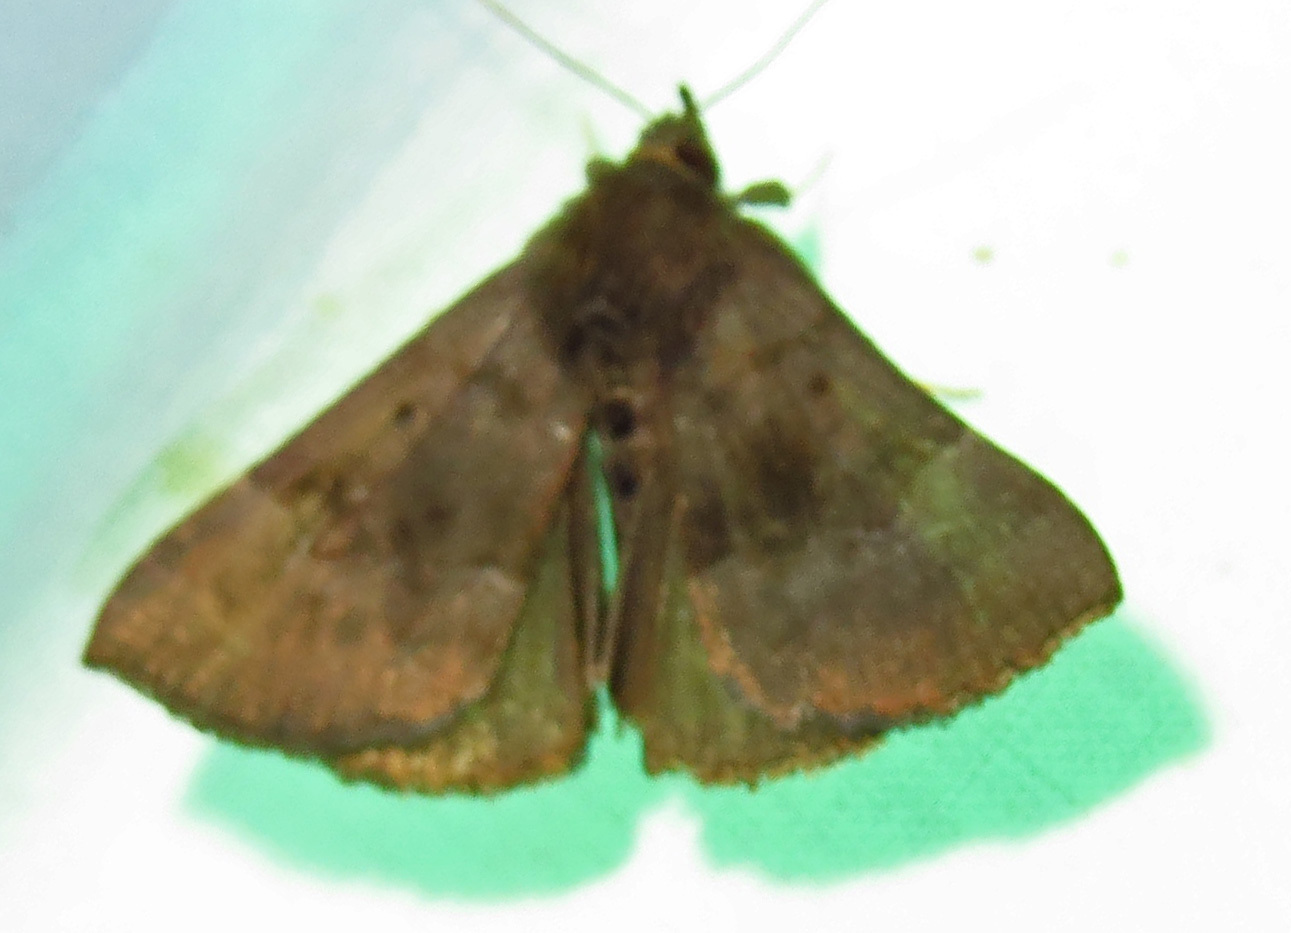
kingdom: Animalia
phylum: Arthropoda
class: Insecta
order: Lepidoptera
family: Erebidae
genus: Hypena
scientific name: Hypena madefactalis
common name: Gray-edged snout
